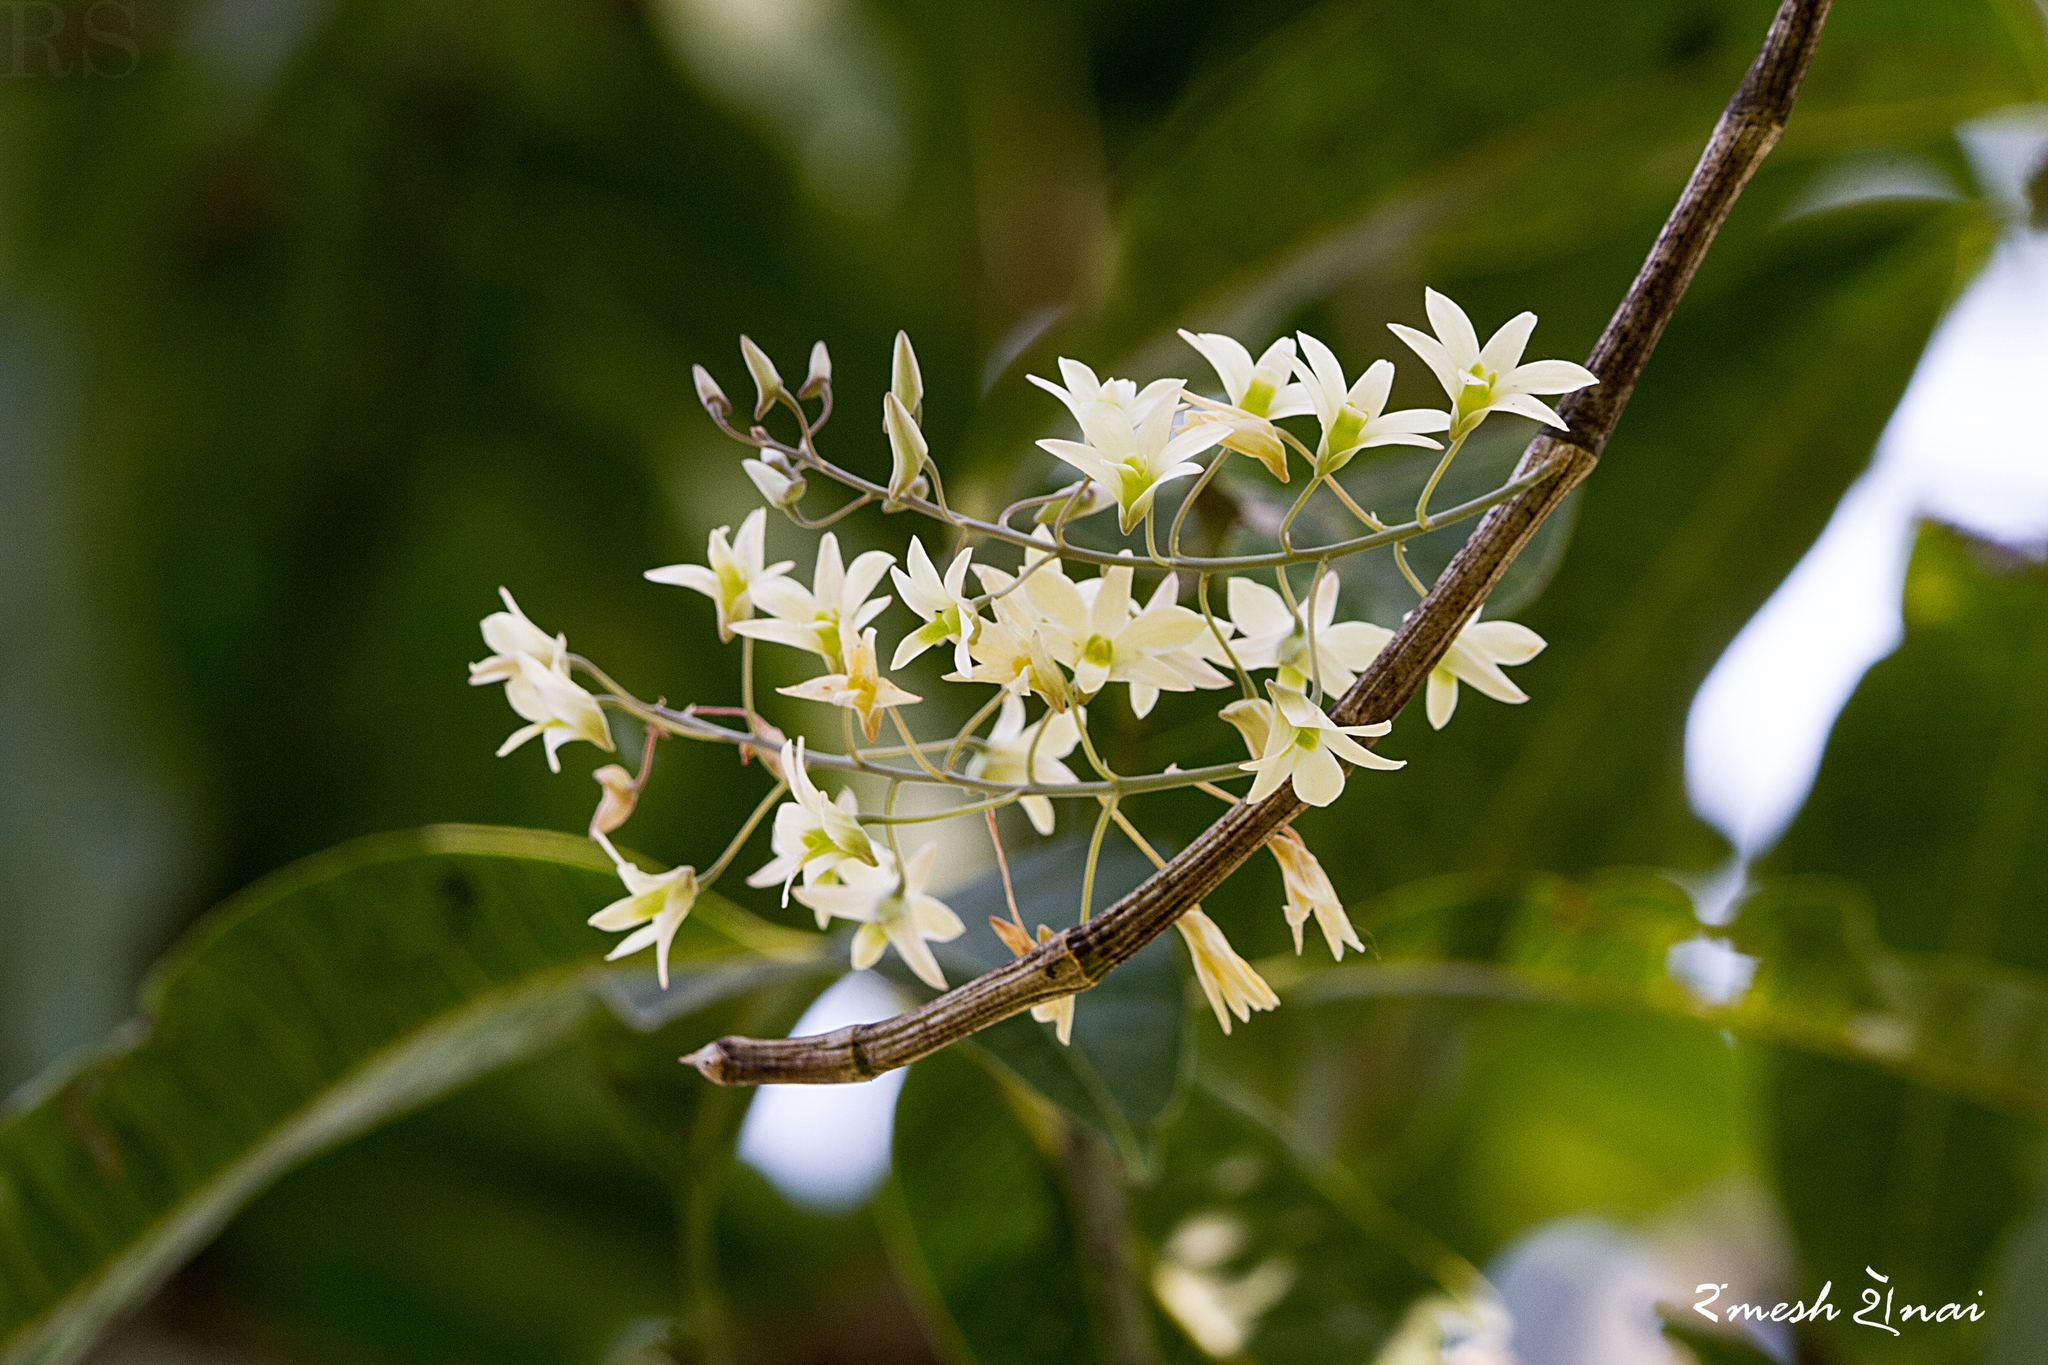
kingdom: Plantae
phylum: Tracheophyta
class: Liliopsida
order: Asparagales
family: Orchidaceae
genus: Dendrobium
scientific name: Dendrobium ovatum
